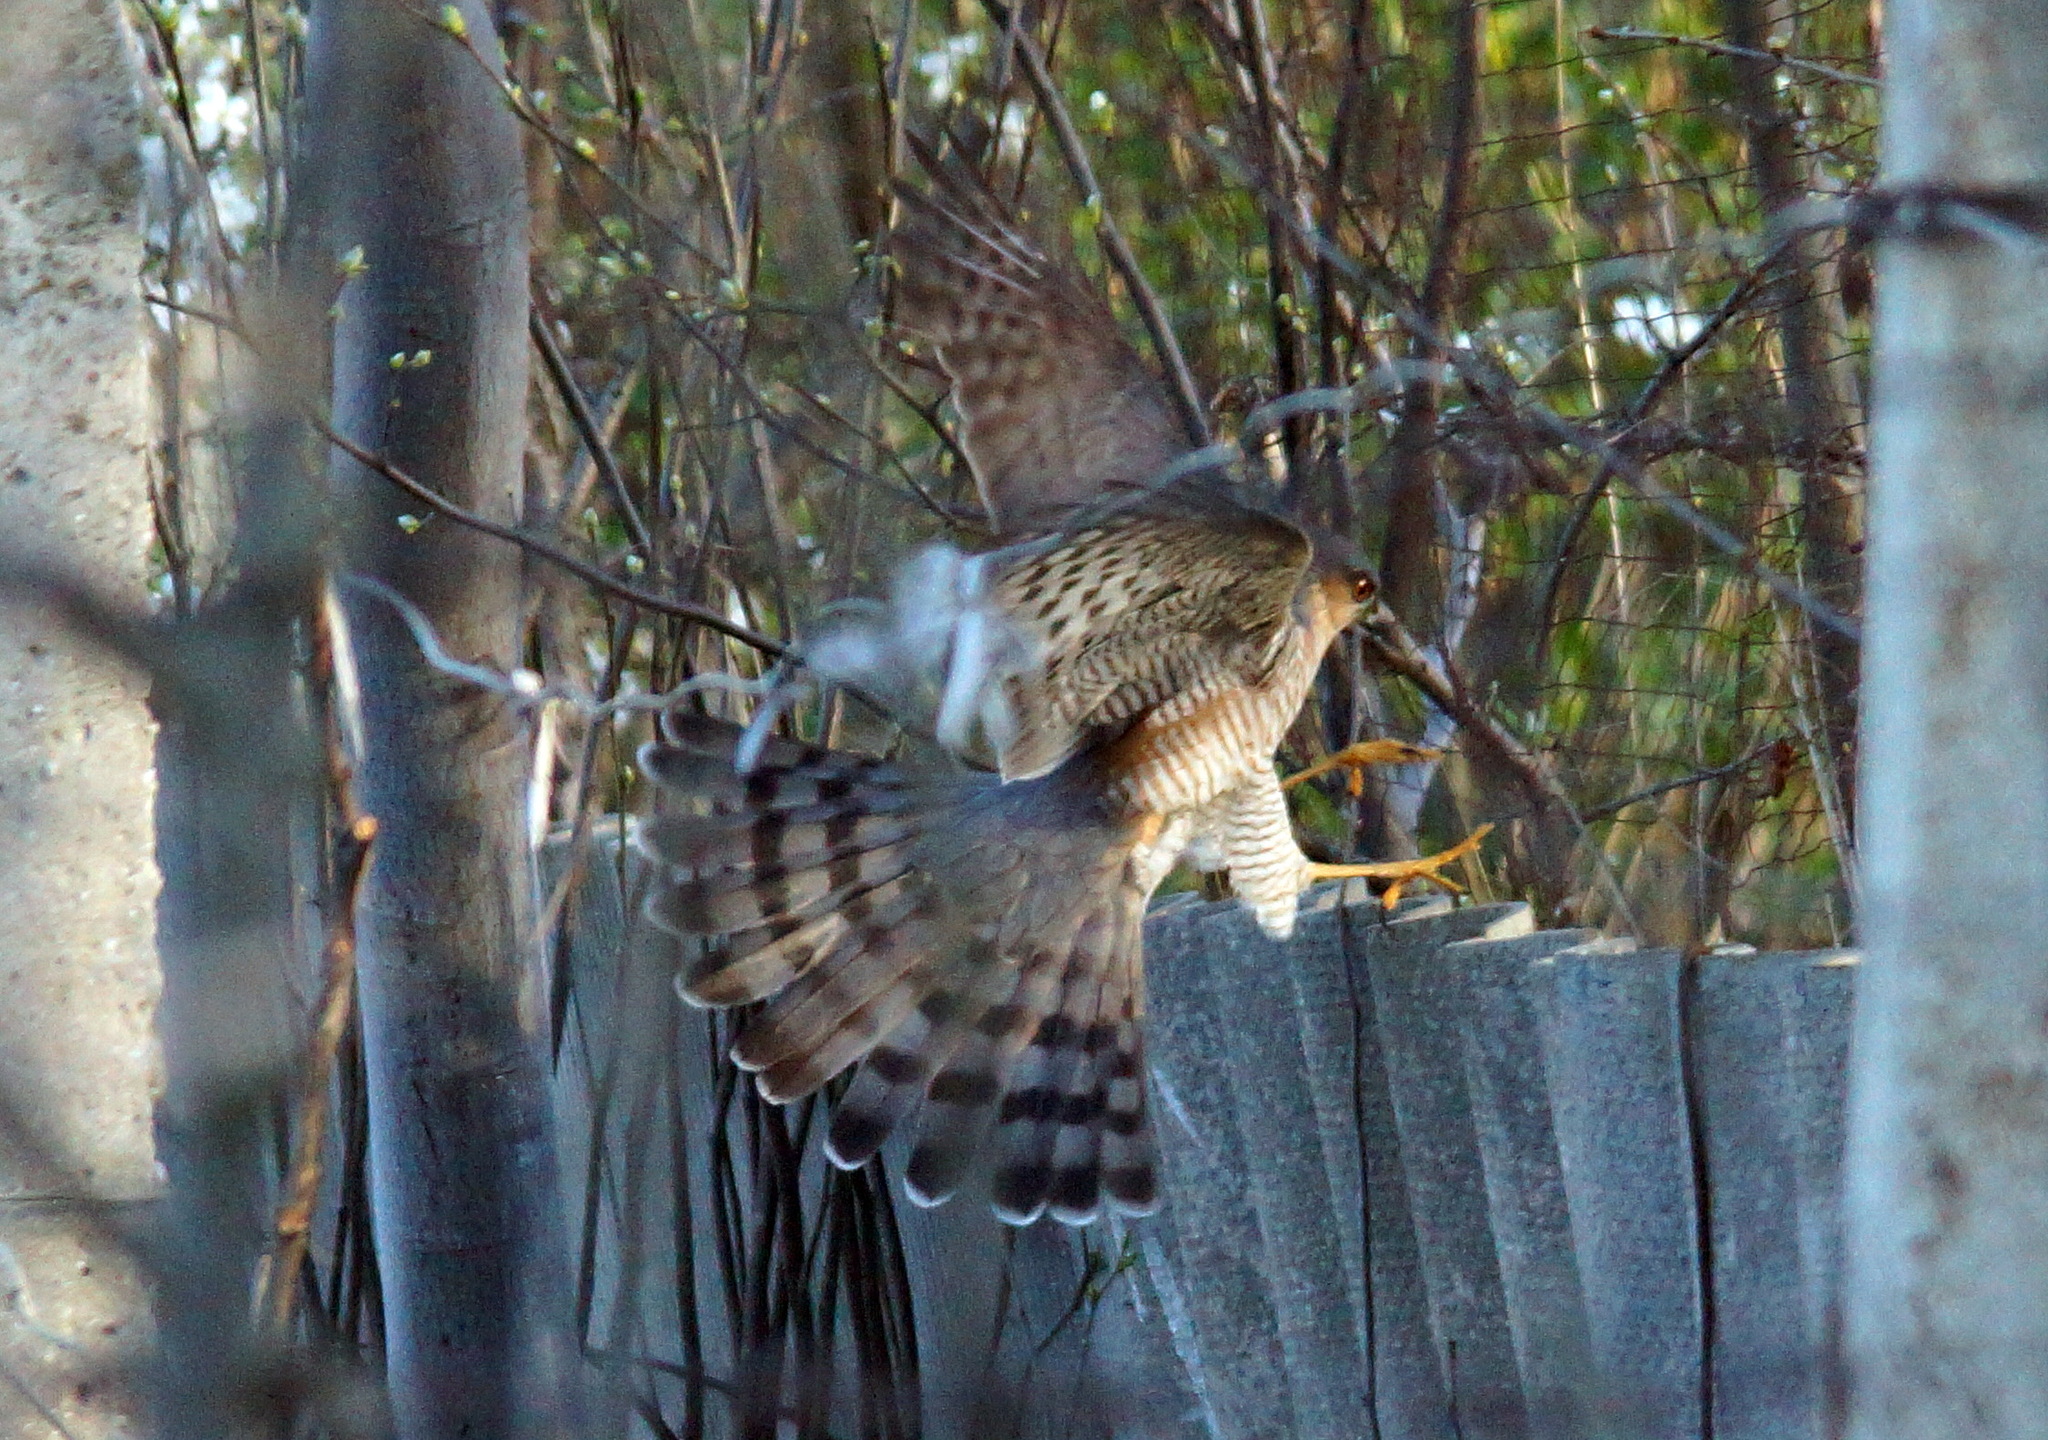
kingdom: Animalia
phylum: Chordata
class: Aves
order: Accipitriformes
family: Accipitridae
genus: Accipiter
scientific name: Accipiter nisus
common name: Eurasian sparrowhawk
